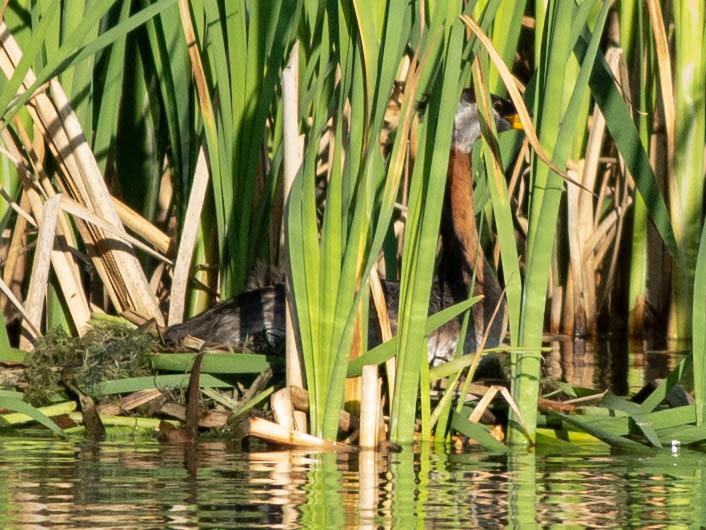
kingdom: Animalia
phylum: Chordata
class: Aves
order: Podicipediformes
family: Podicipedidae
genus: Podiceps
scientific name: Podiceps grisegena
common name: Red-necked grebe
